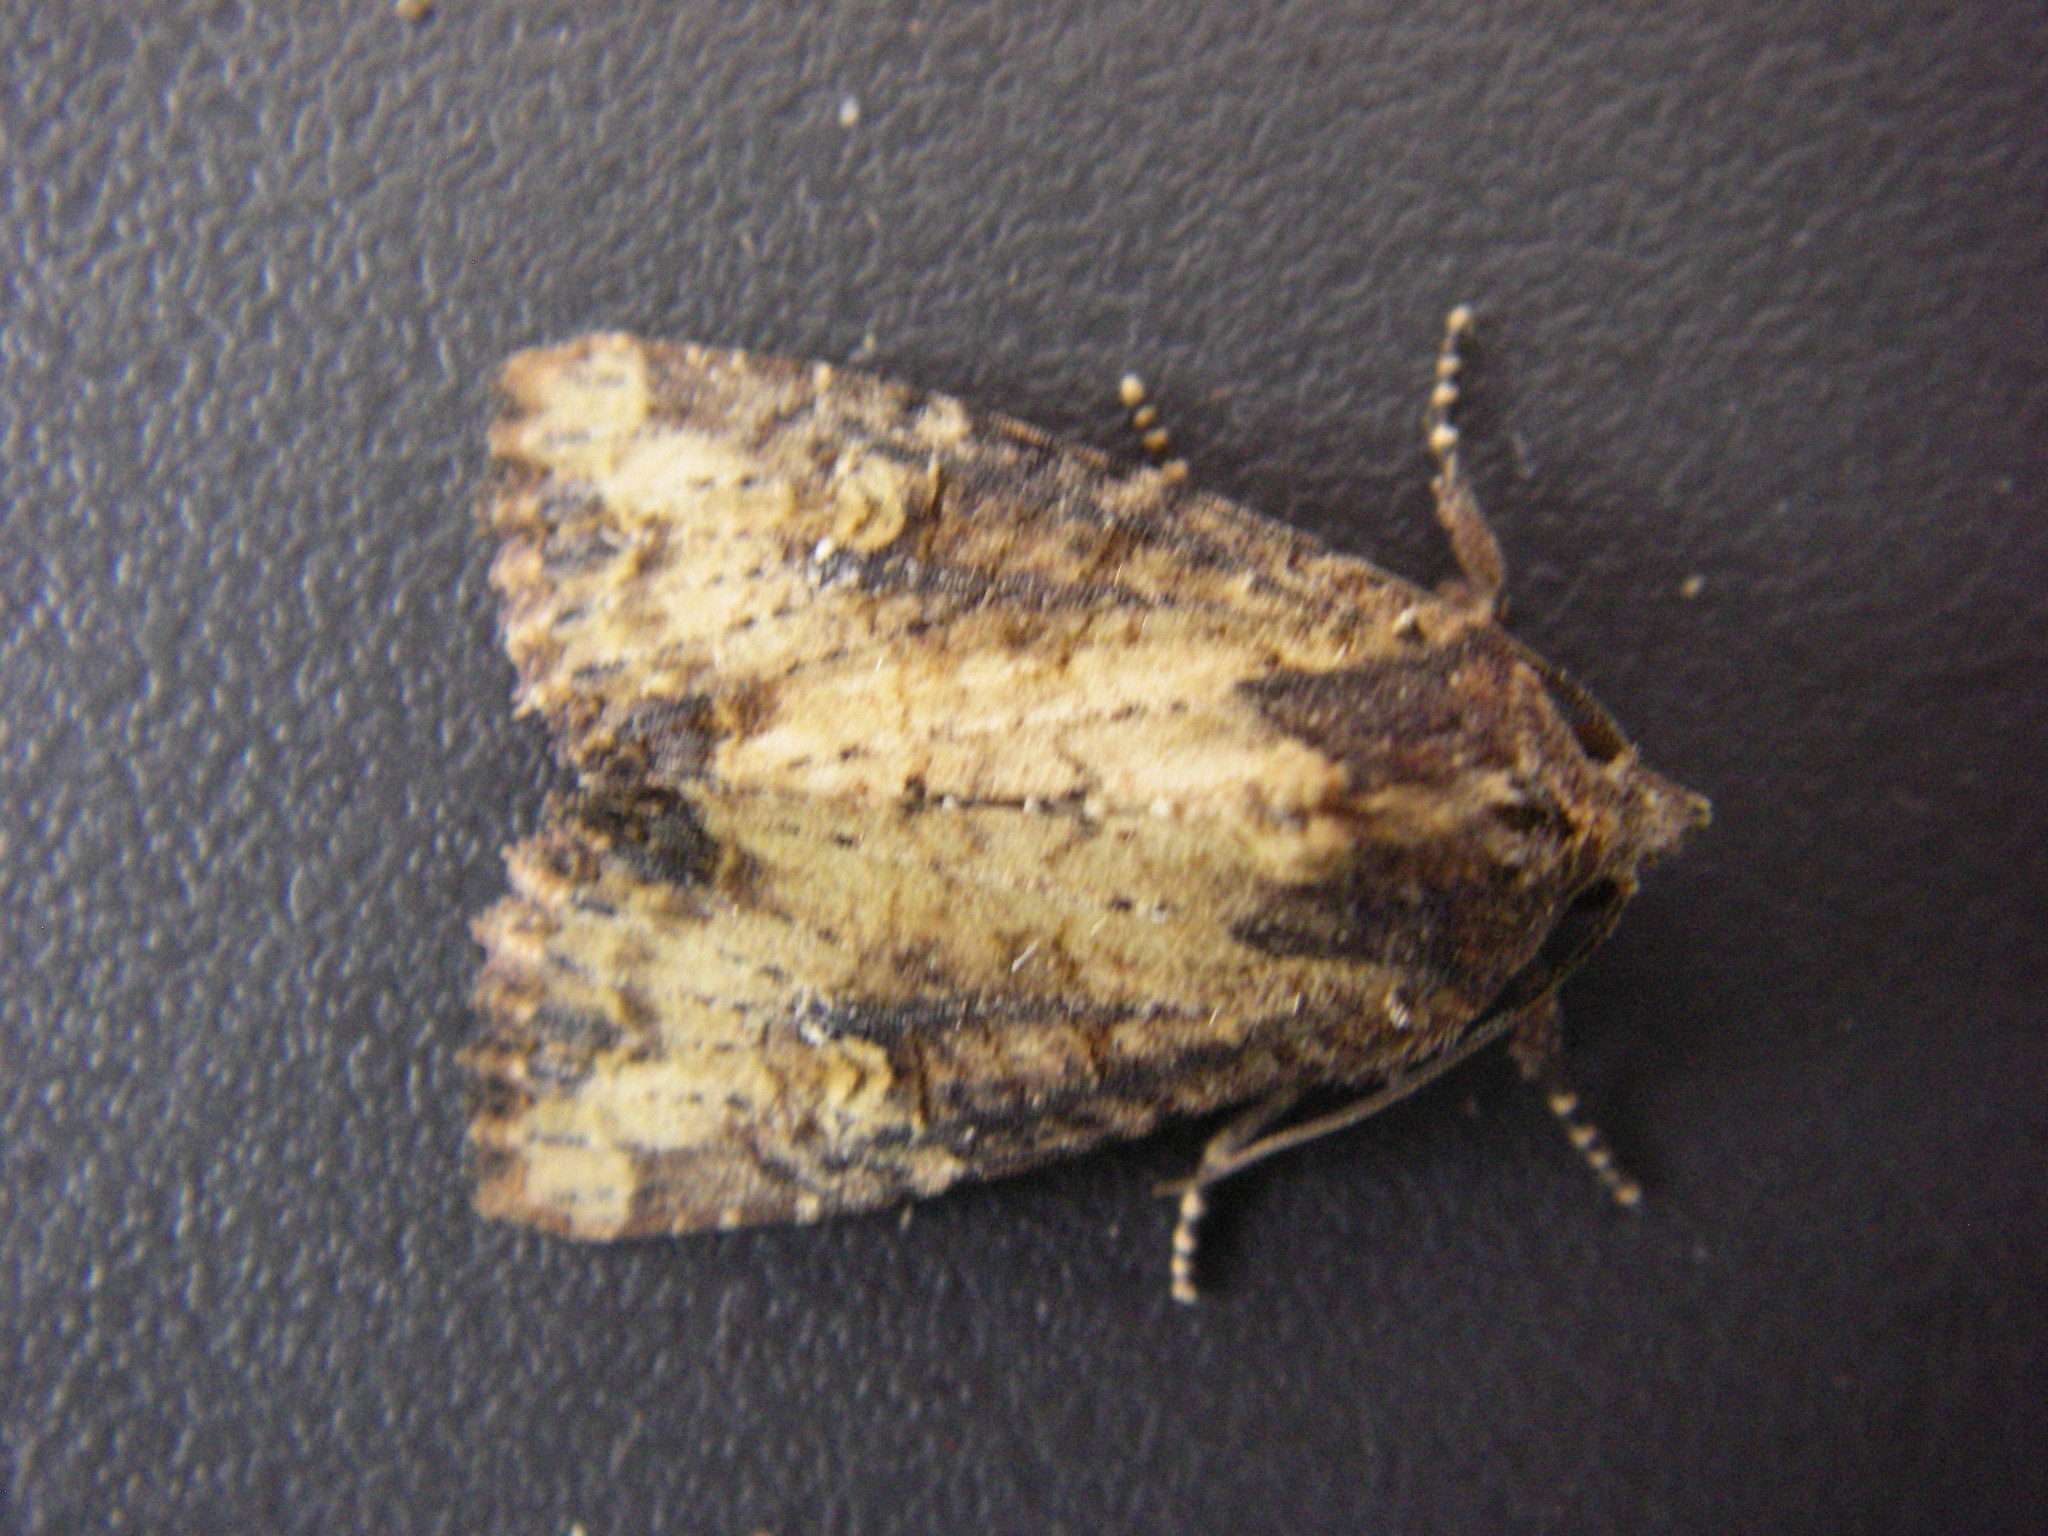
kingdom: Animalia
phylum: Arthropoda
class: Insecta
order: Lepidoptera
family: Noctuidae
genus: Mesapamea
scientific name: Mesapamea
